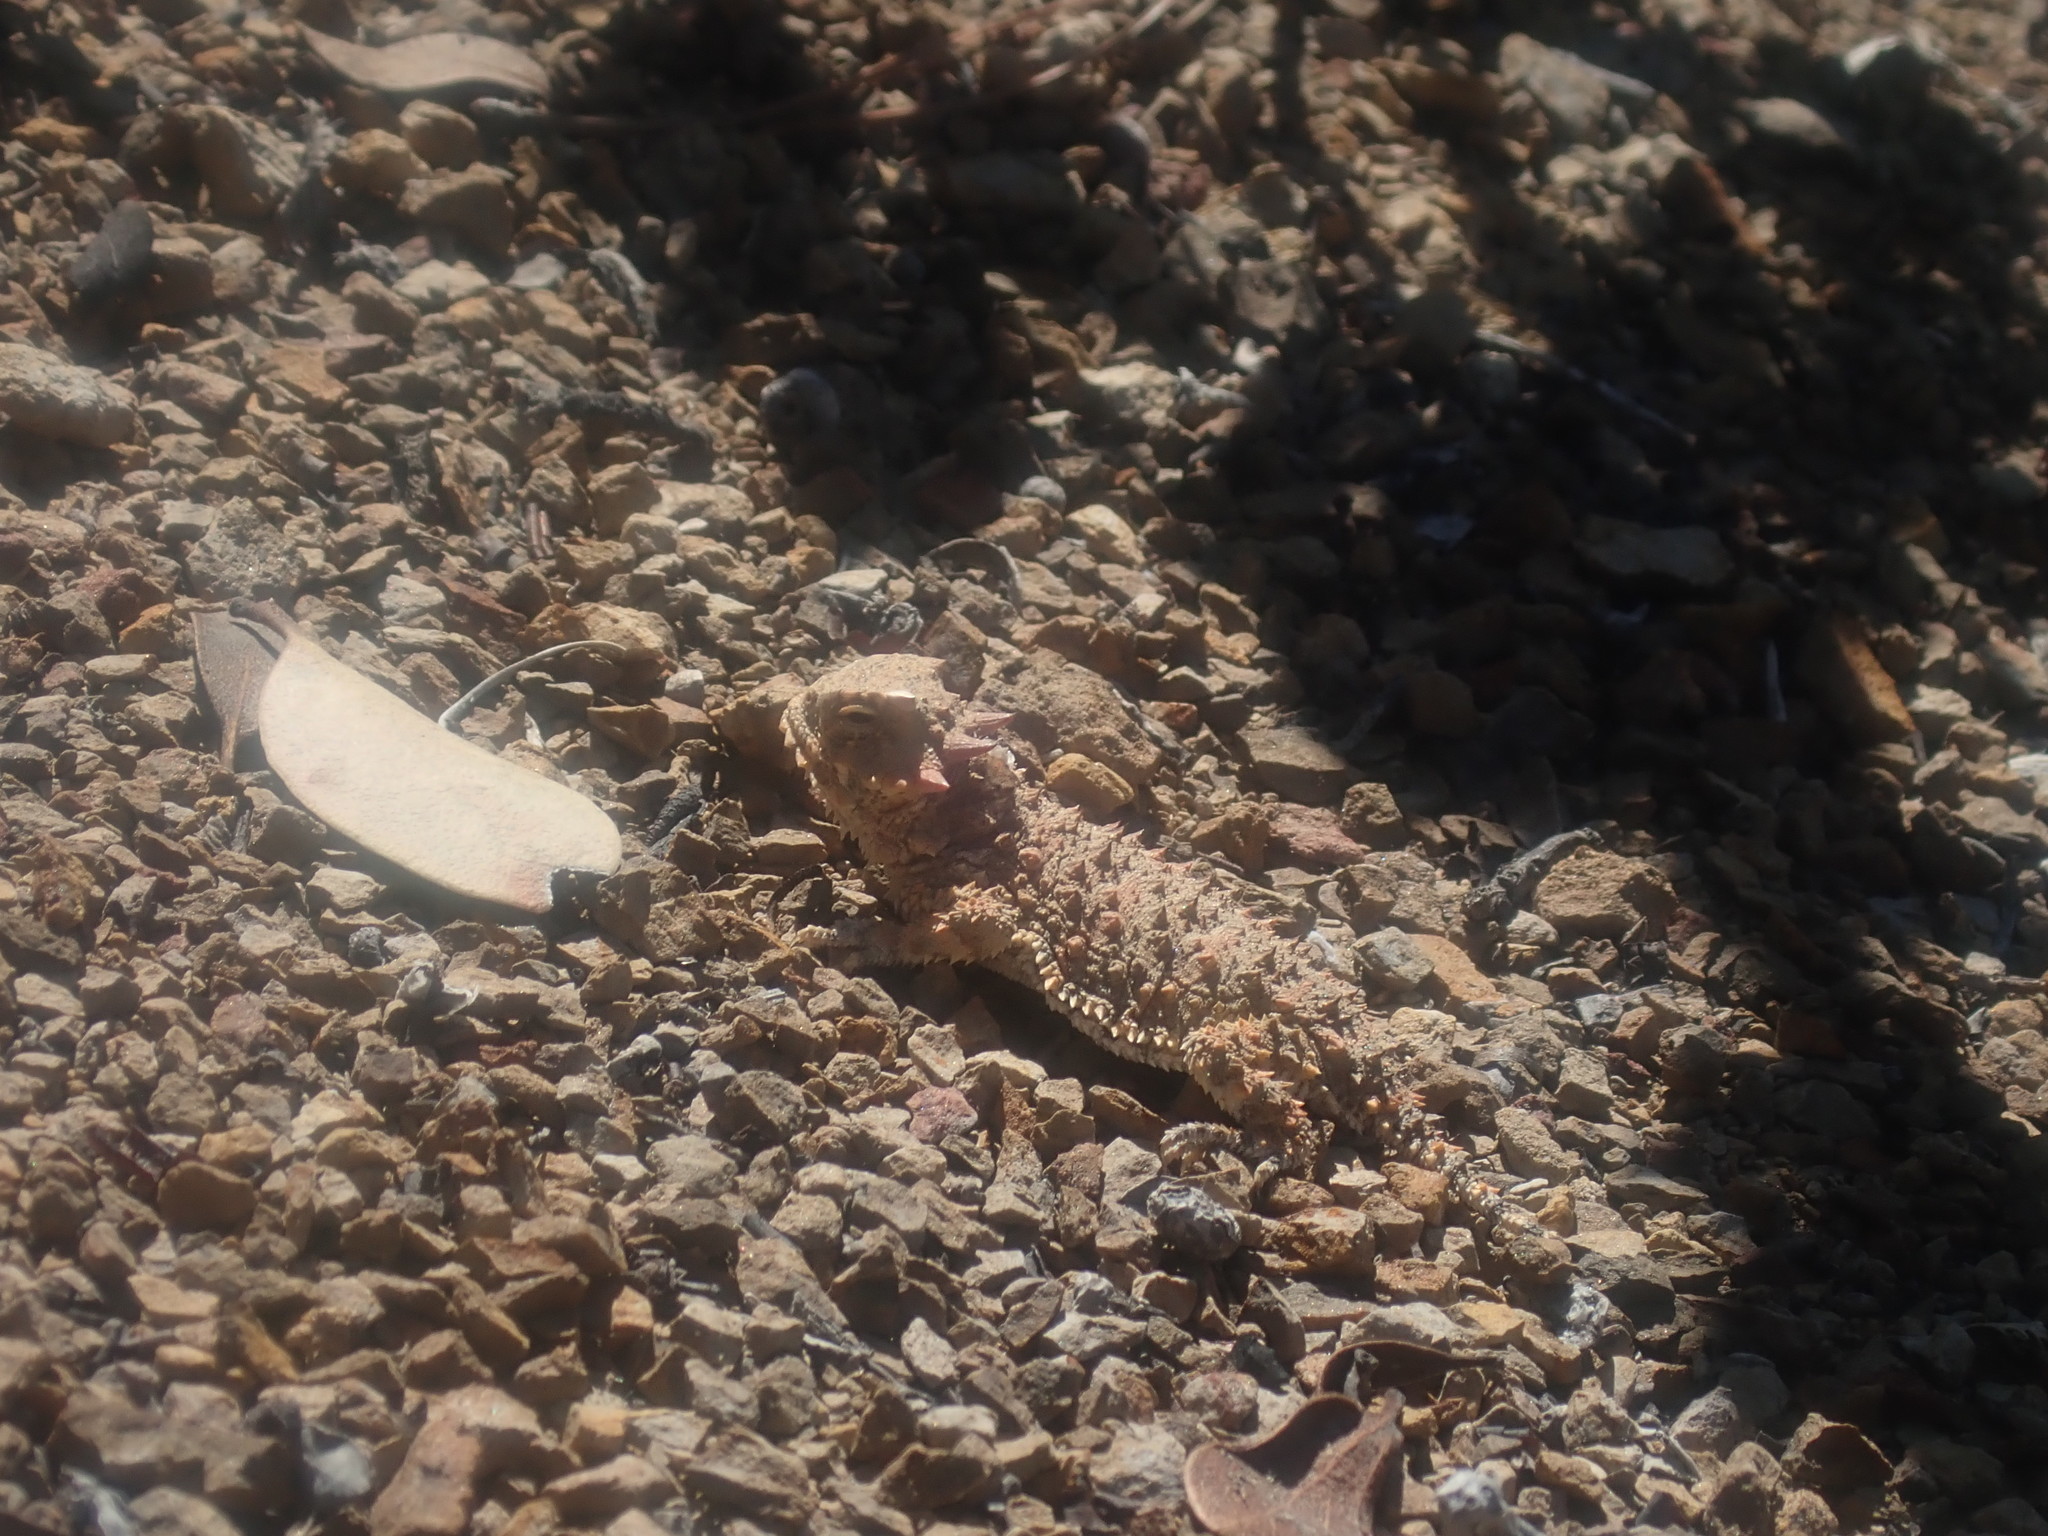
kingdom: Animalia
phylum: Chordata
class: Squamata
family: Phrynosomatidae
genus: Phrynosoma
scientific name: Phrynosoma blainvillii
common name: San diego horned lizard
